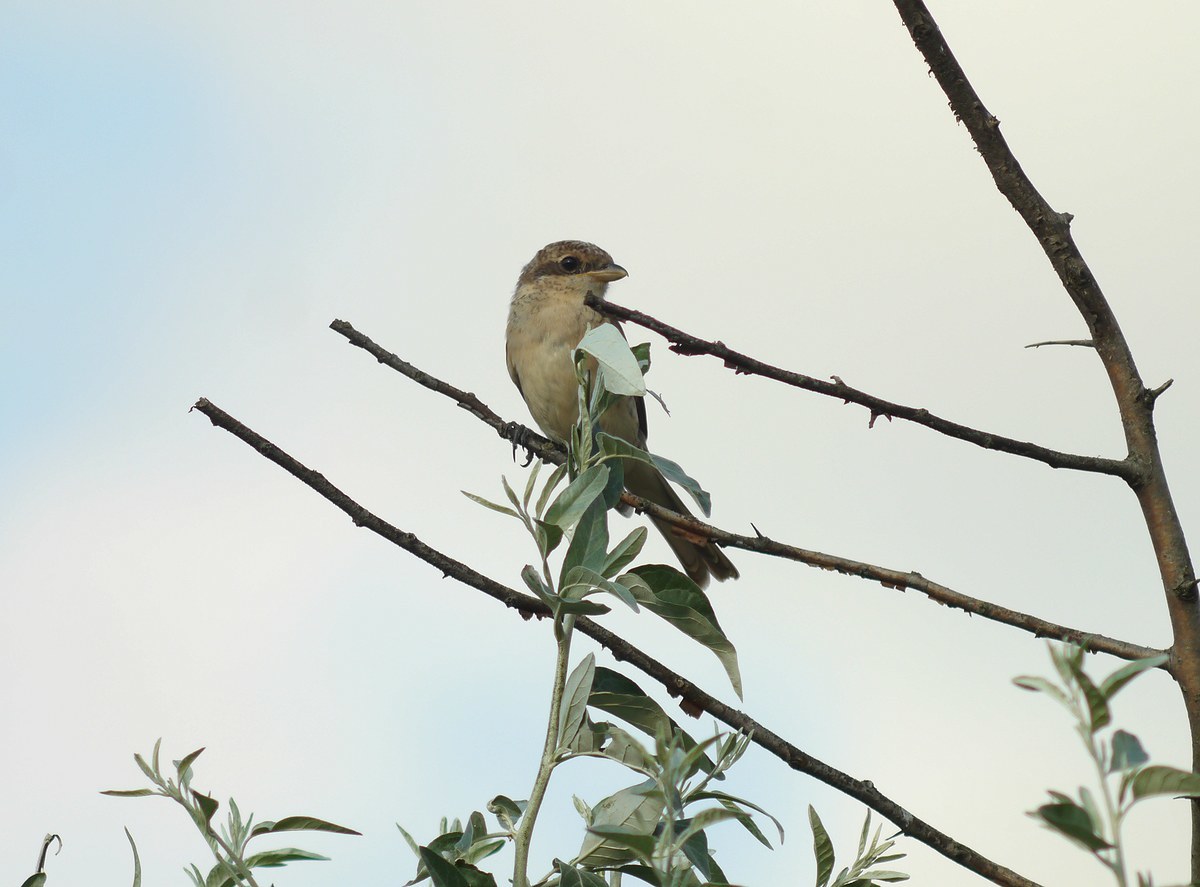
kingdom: Animalia
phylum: Chordata
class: Aves
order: Passeriformes
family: Laniidae
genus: Lanius
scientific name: Lanius collurio
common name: Red-backed shrike
